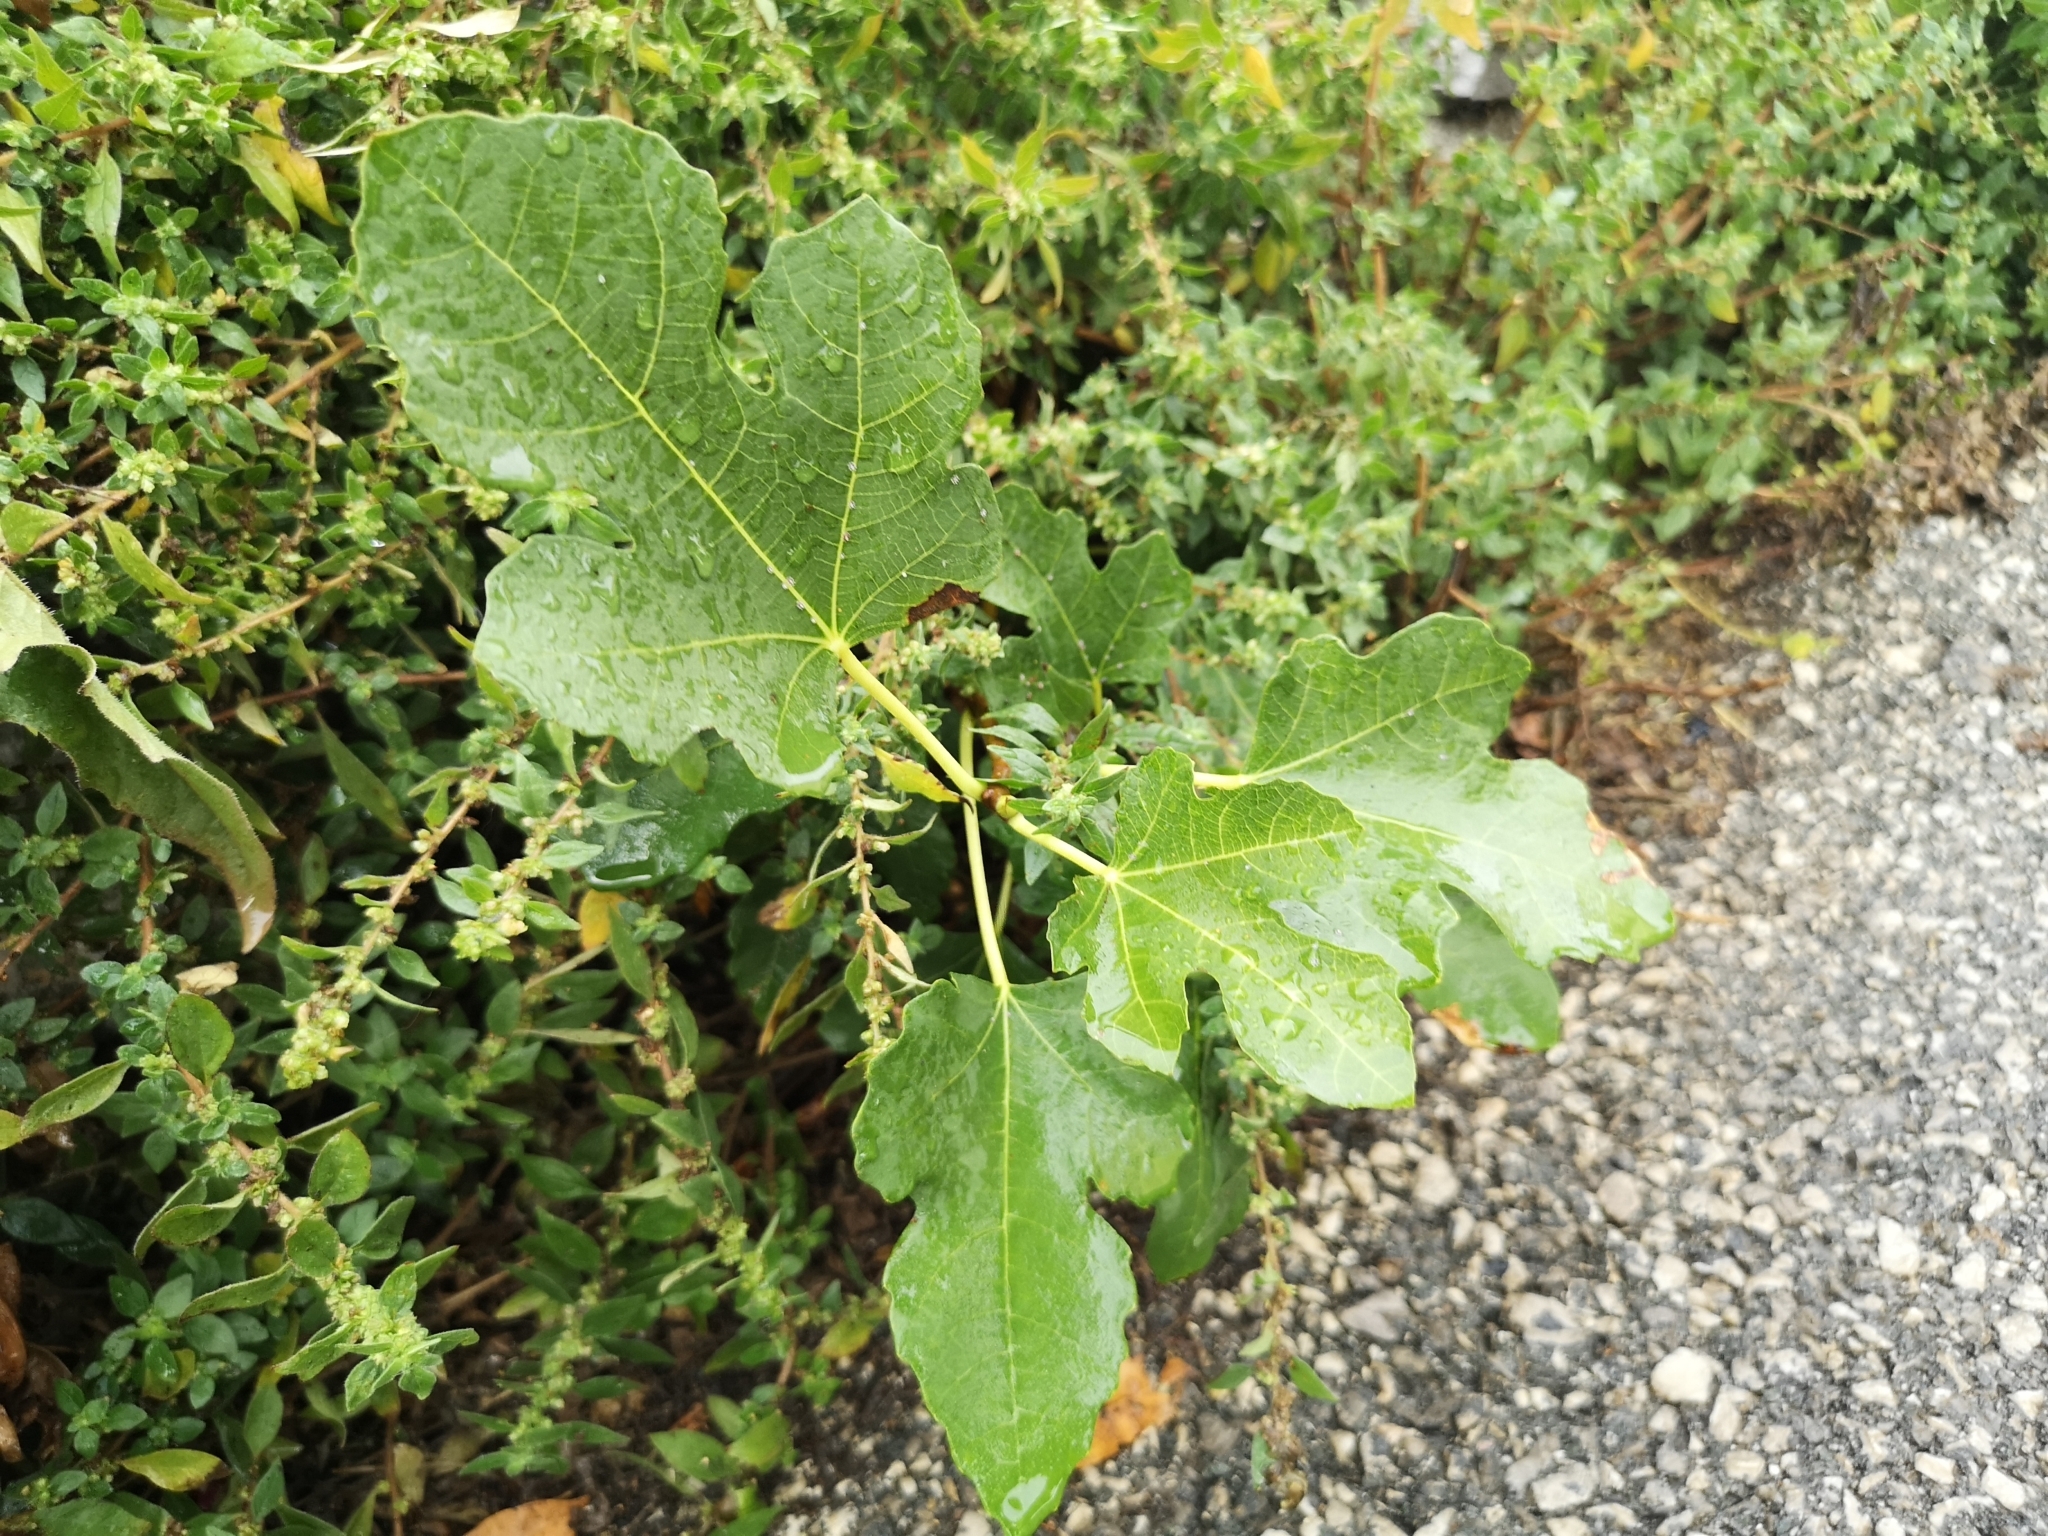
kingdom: Plantae
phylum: Tracheophyta
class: Magnoliopsida
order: Rosales
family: Moraceae
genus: Ficus
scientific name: Ficus carica
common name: Fig
